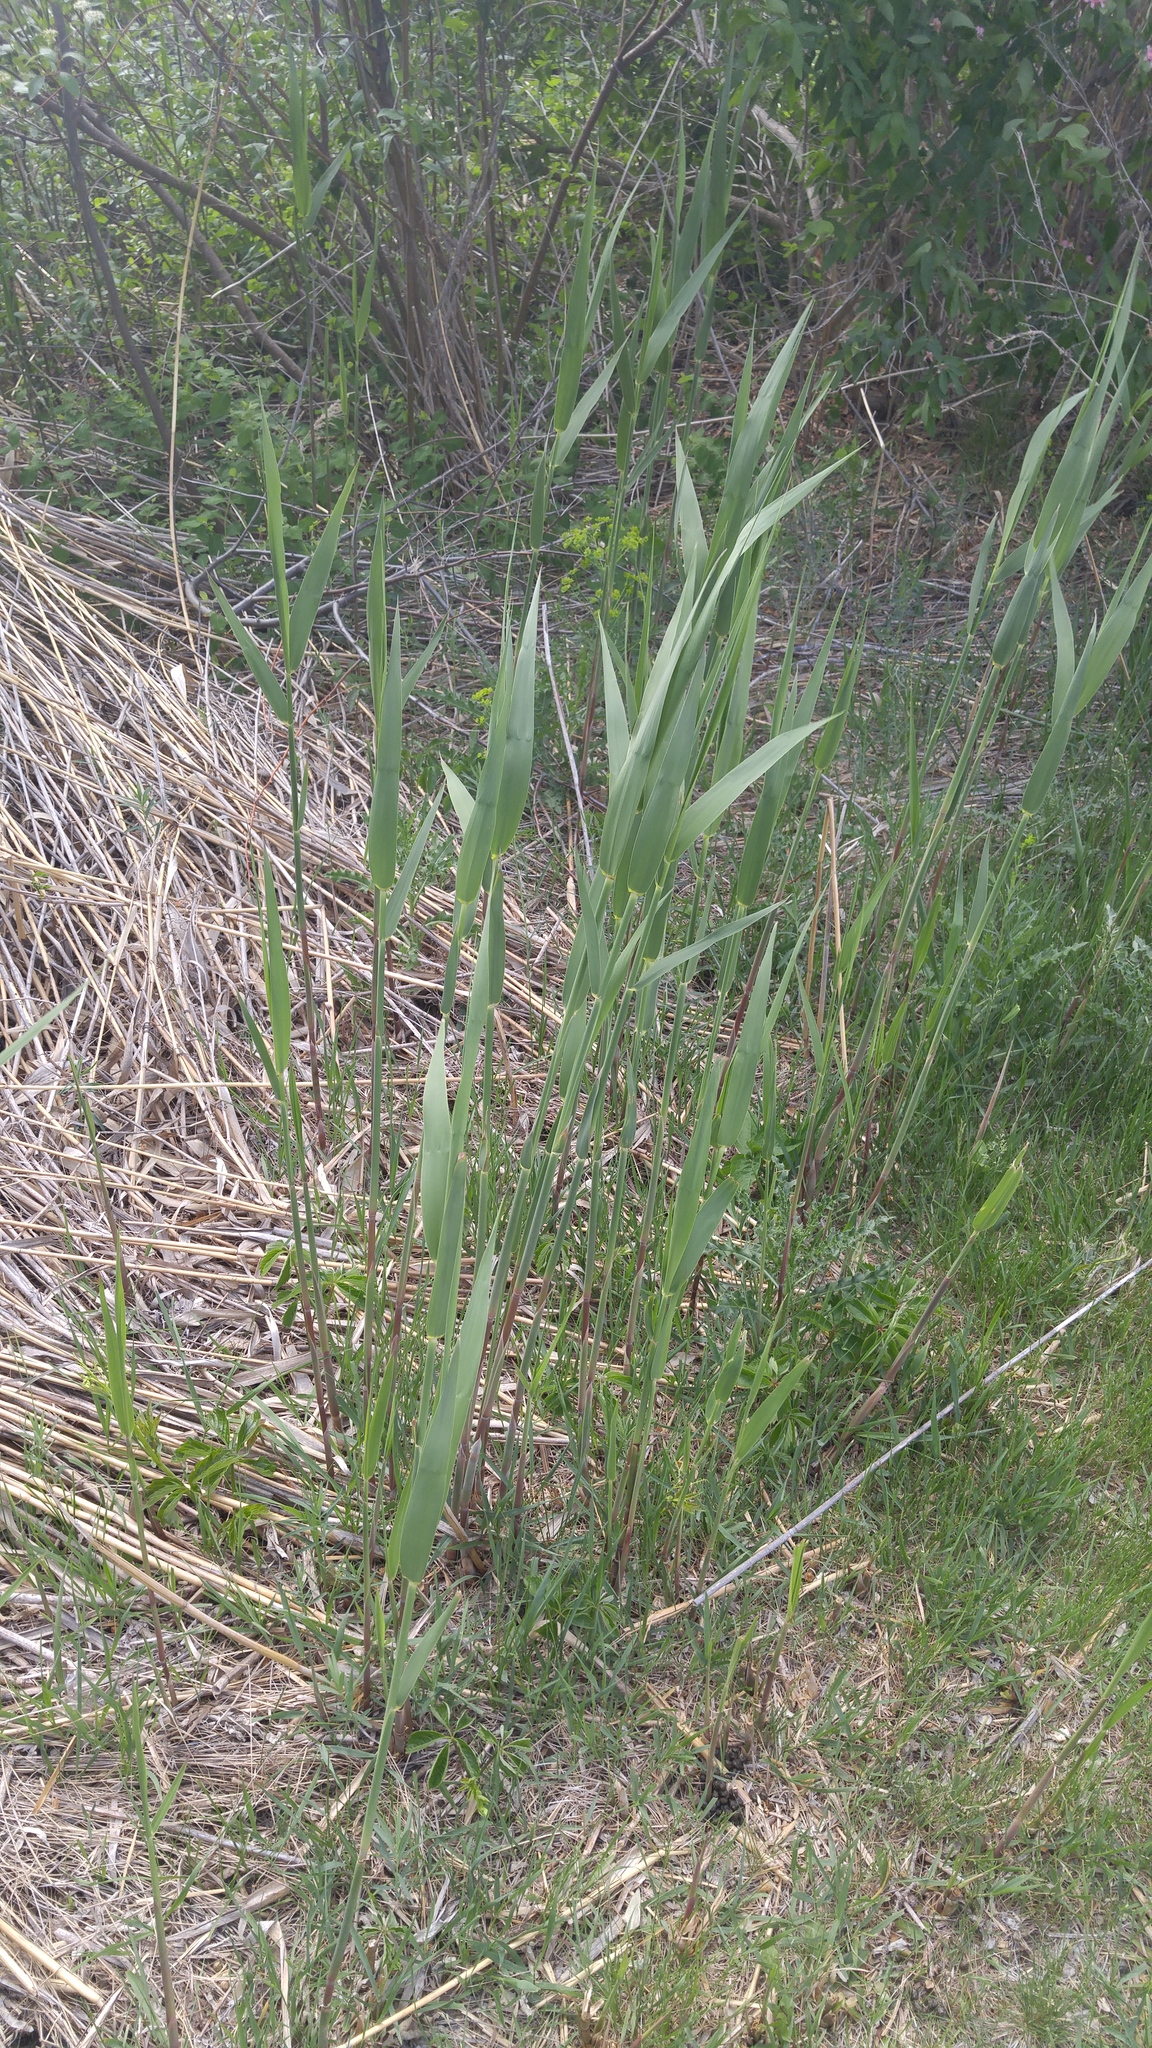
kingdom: Plantae
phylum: Tracheophyta
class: Liliopsida
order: Poales
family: Poaceae
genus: Phragmites
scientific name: Phragmites australis
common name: Common reed
